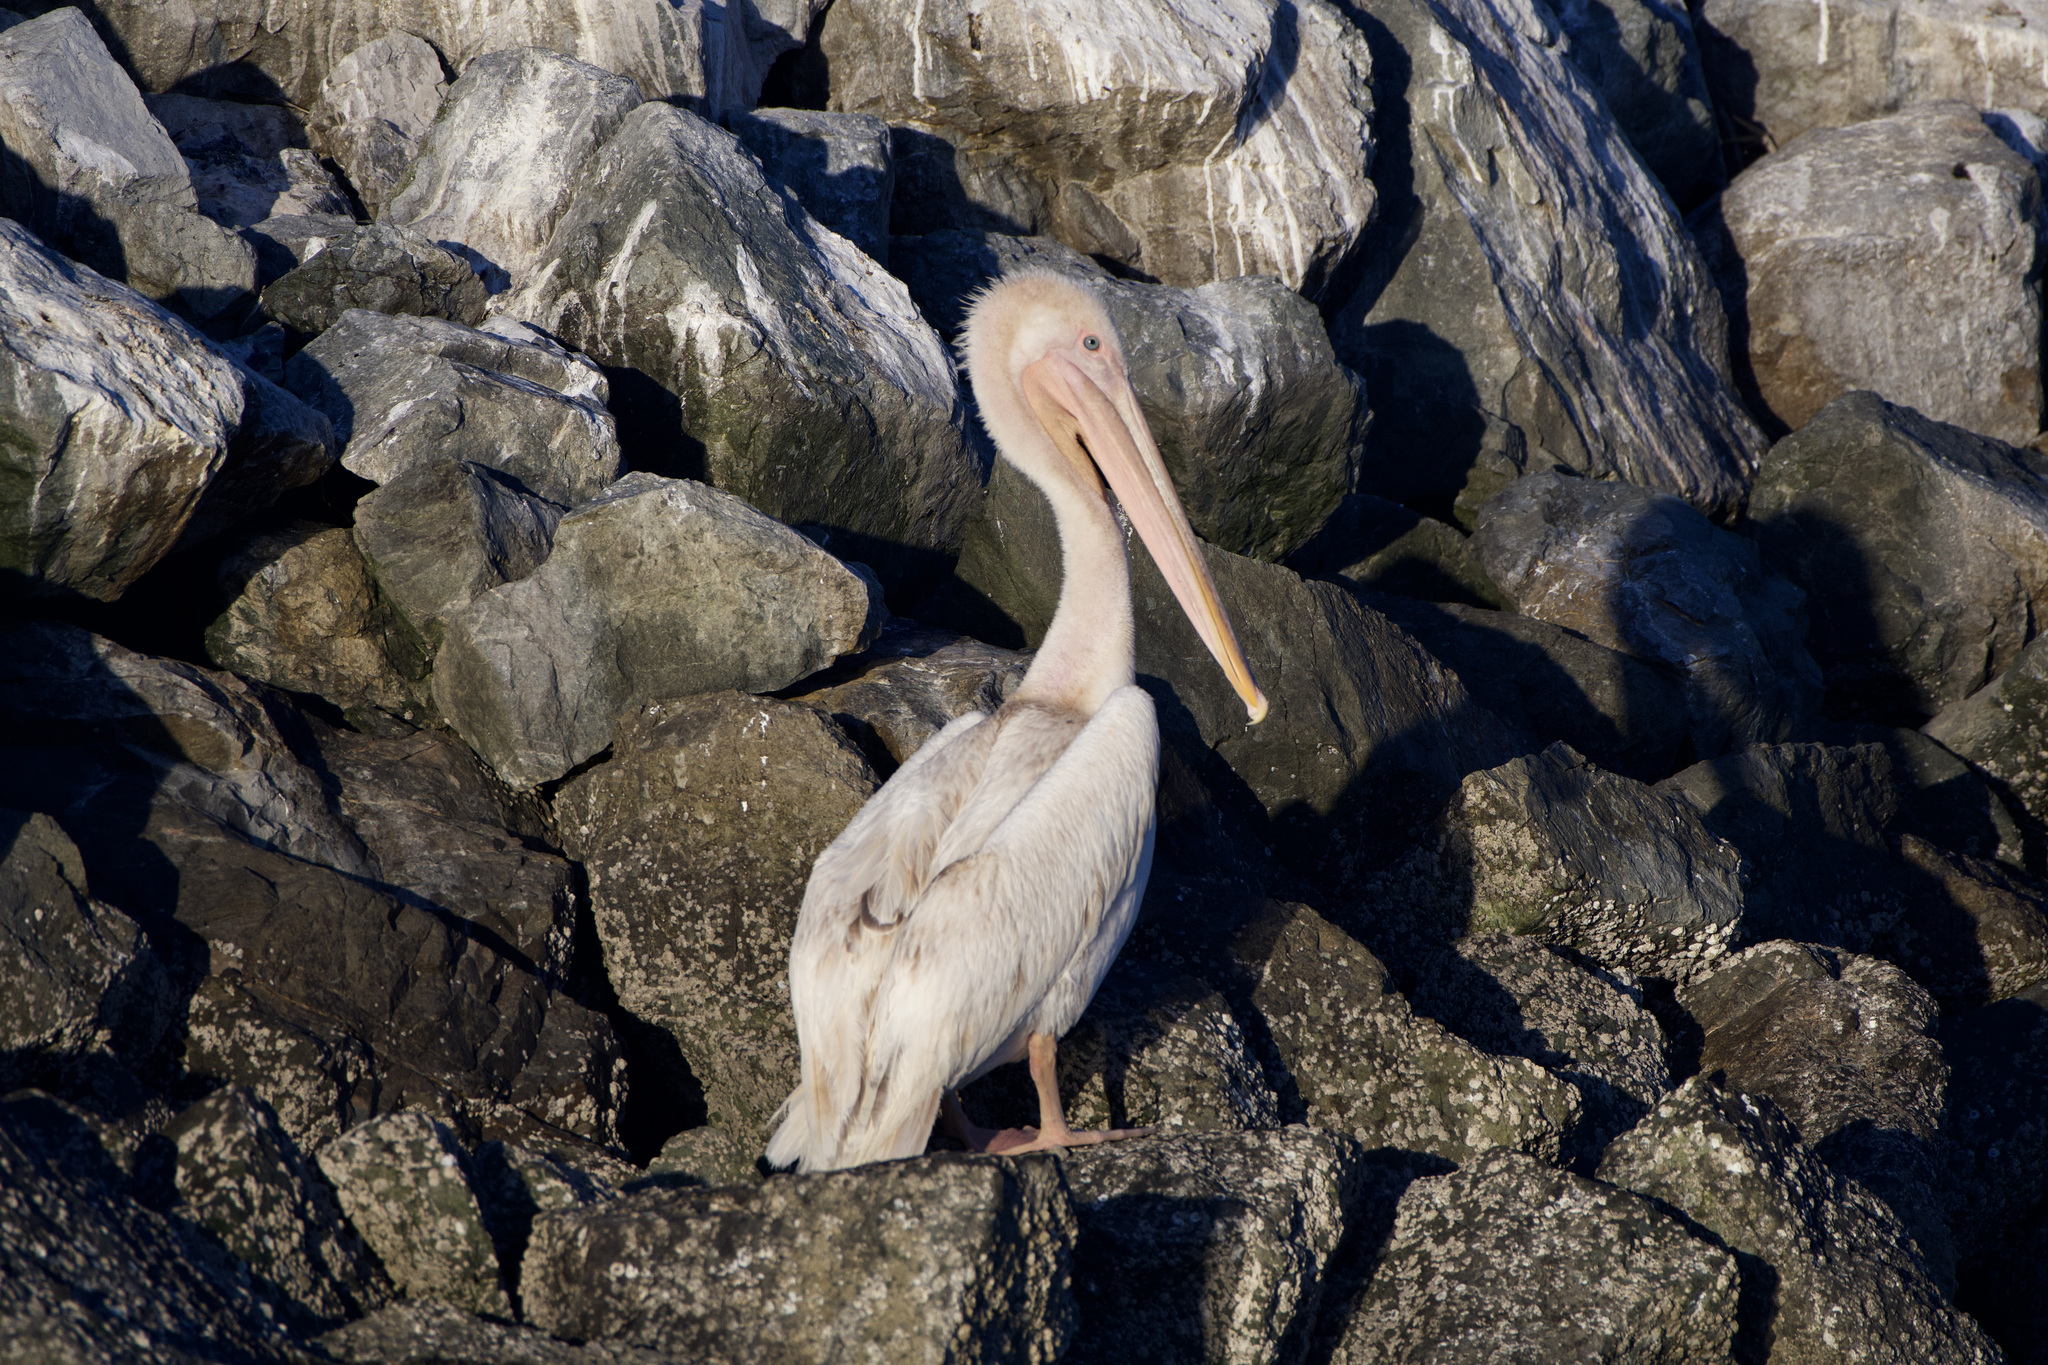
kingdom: Animalia
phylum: Chordata
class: Aves
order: Pelecaniformes
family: Pelecanidae
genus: Pelecanus
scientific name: Pelecanus occidentalis
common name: Brown pelican
